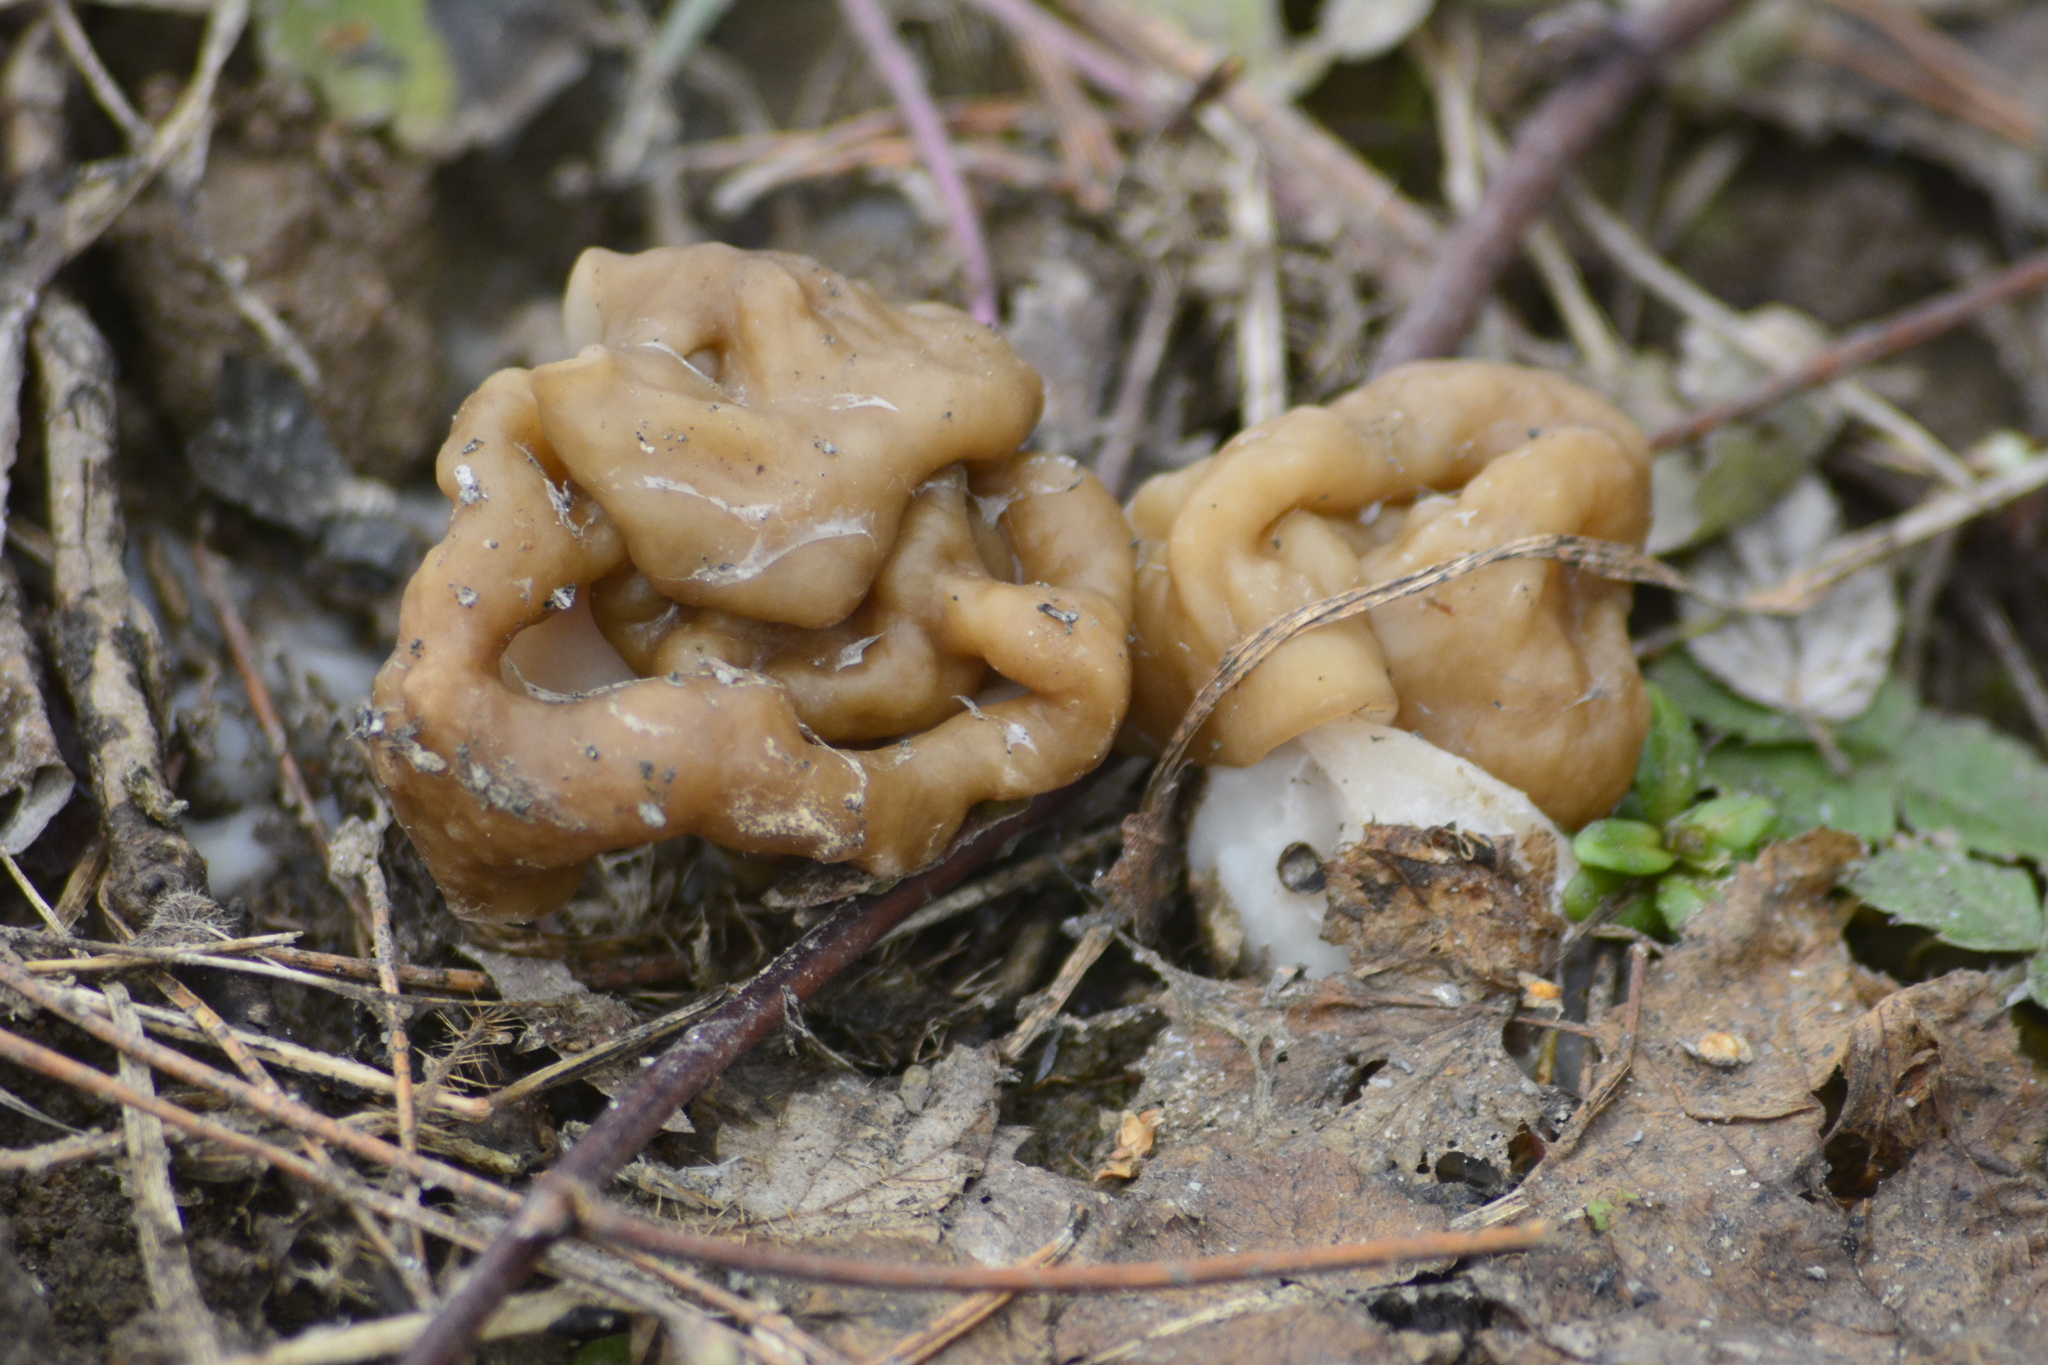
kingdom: Fungi
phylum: Ascomycota
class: Pezizomycetes
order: Pezizales
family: Discinaceae
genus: Gyromitra
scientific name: Gyromitra gigas
